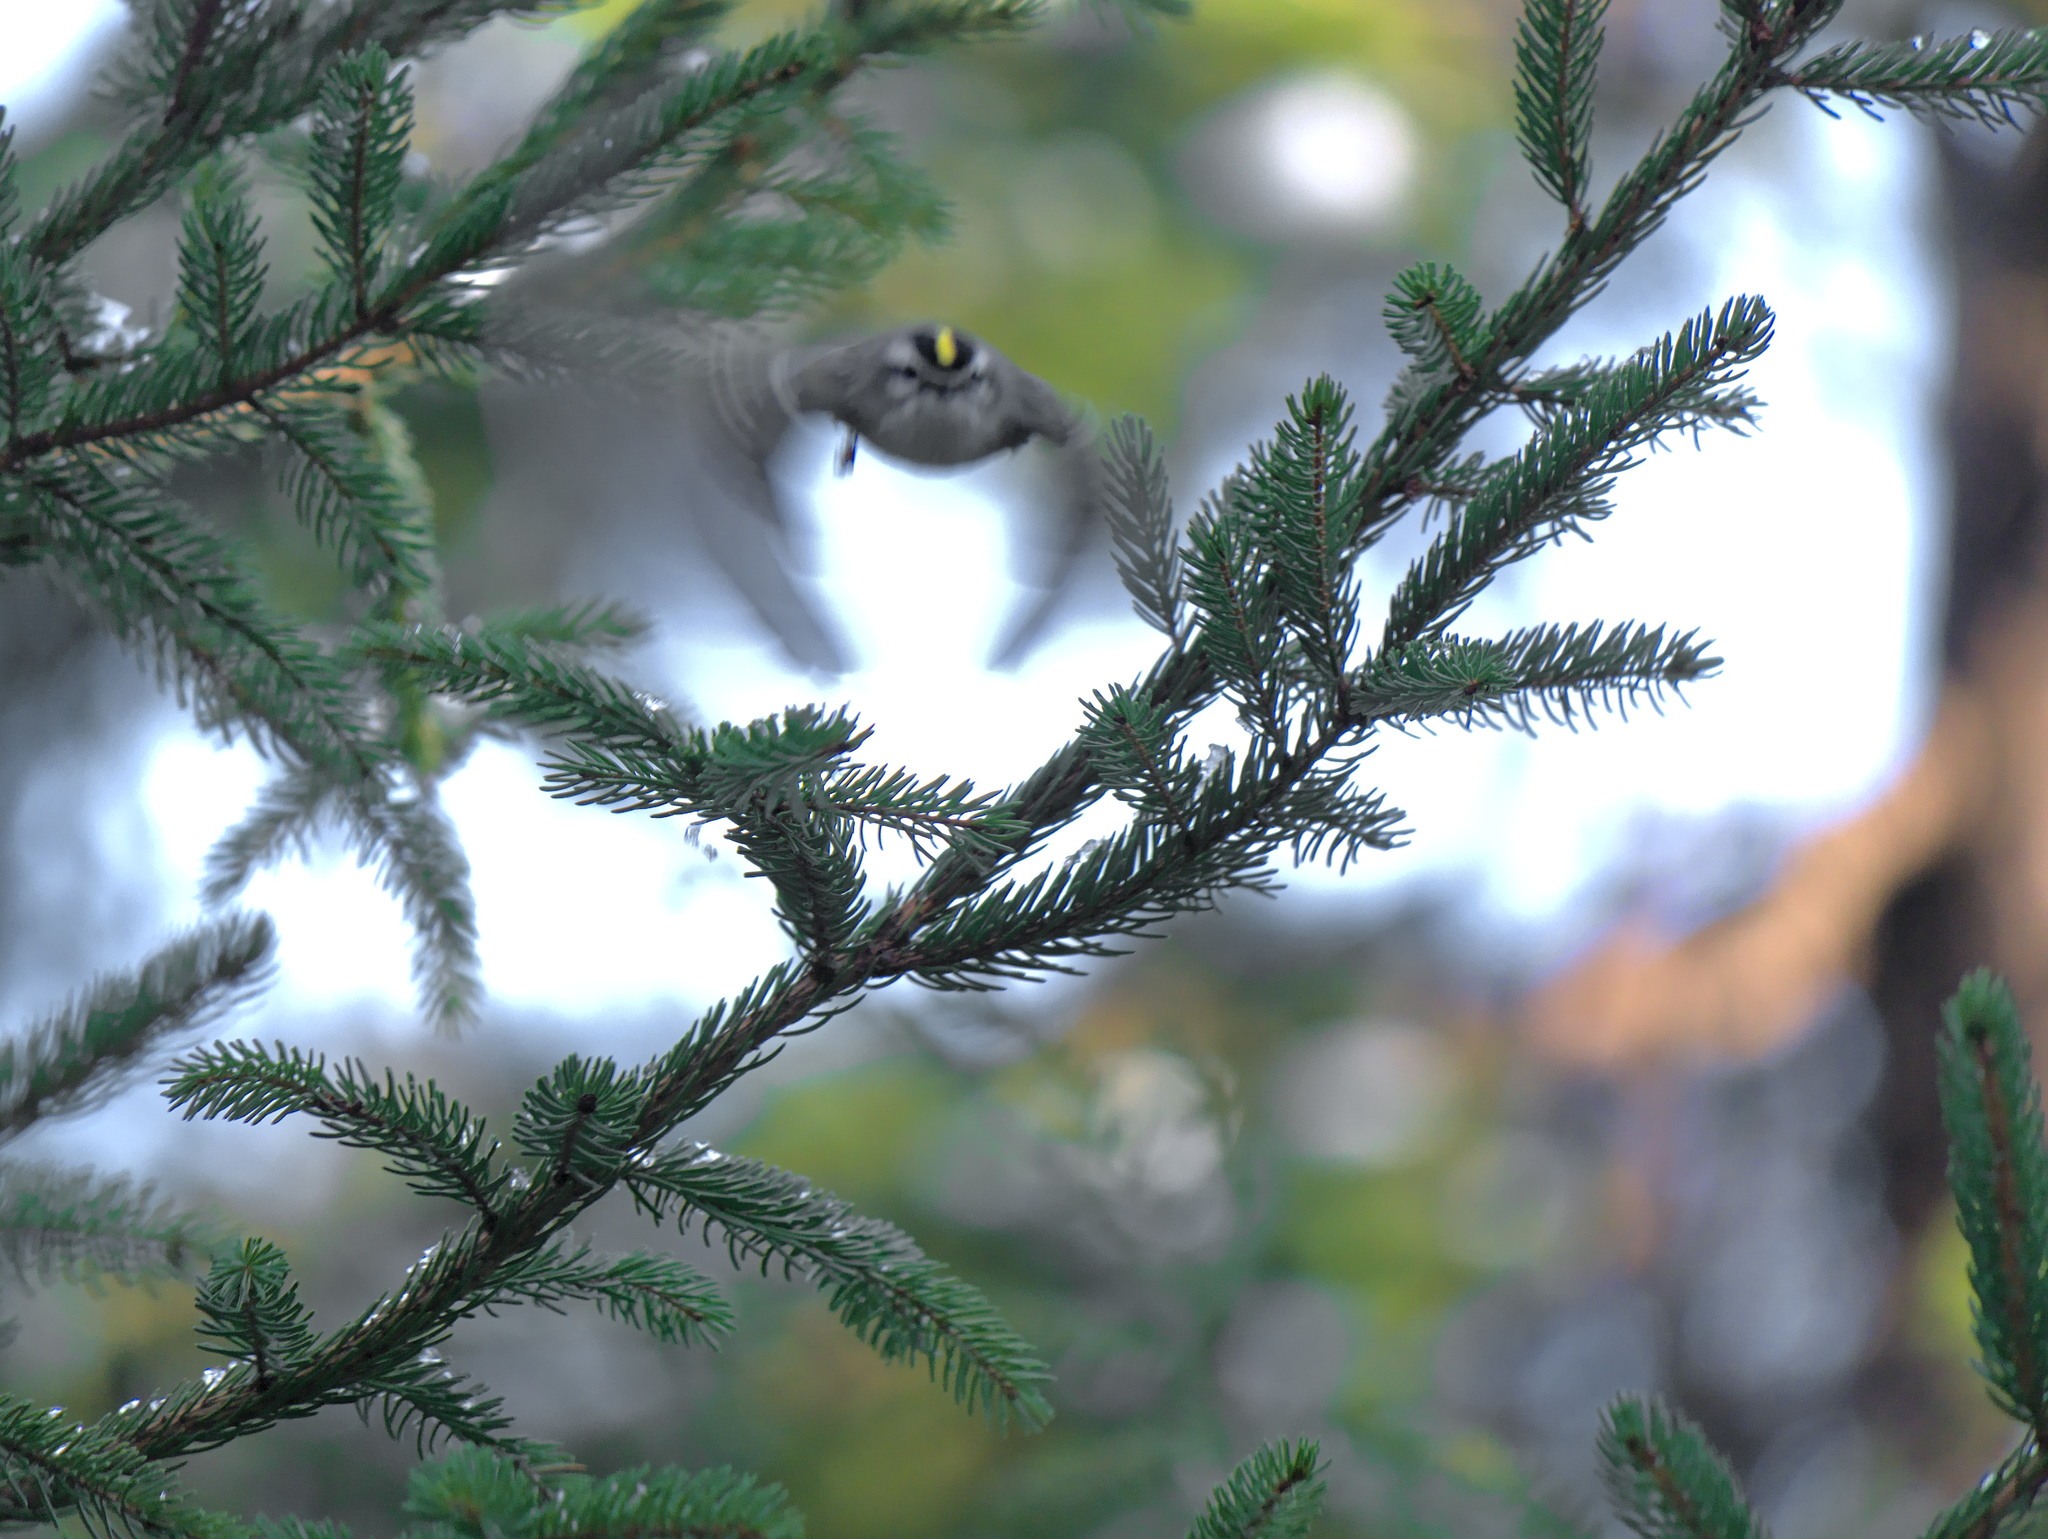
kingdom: Animalia
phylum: Chordata
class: Aves
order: Passeriformes
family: Regulidae
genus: Regulus
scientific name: Regulus satrapa
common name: Golden-crowned kinglet
